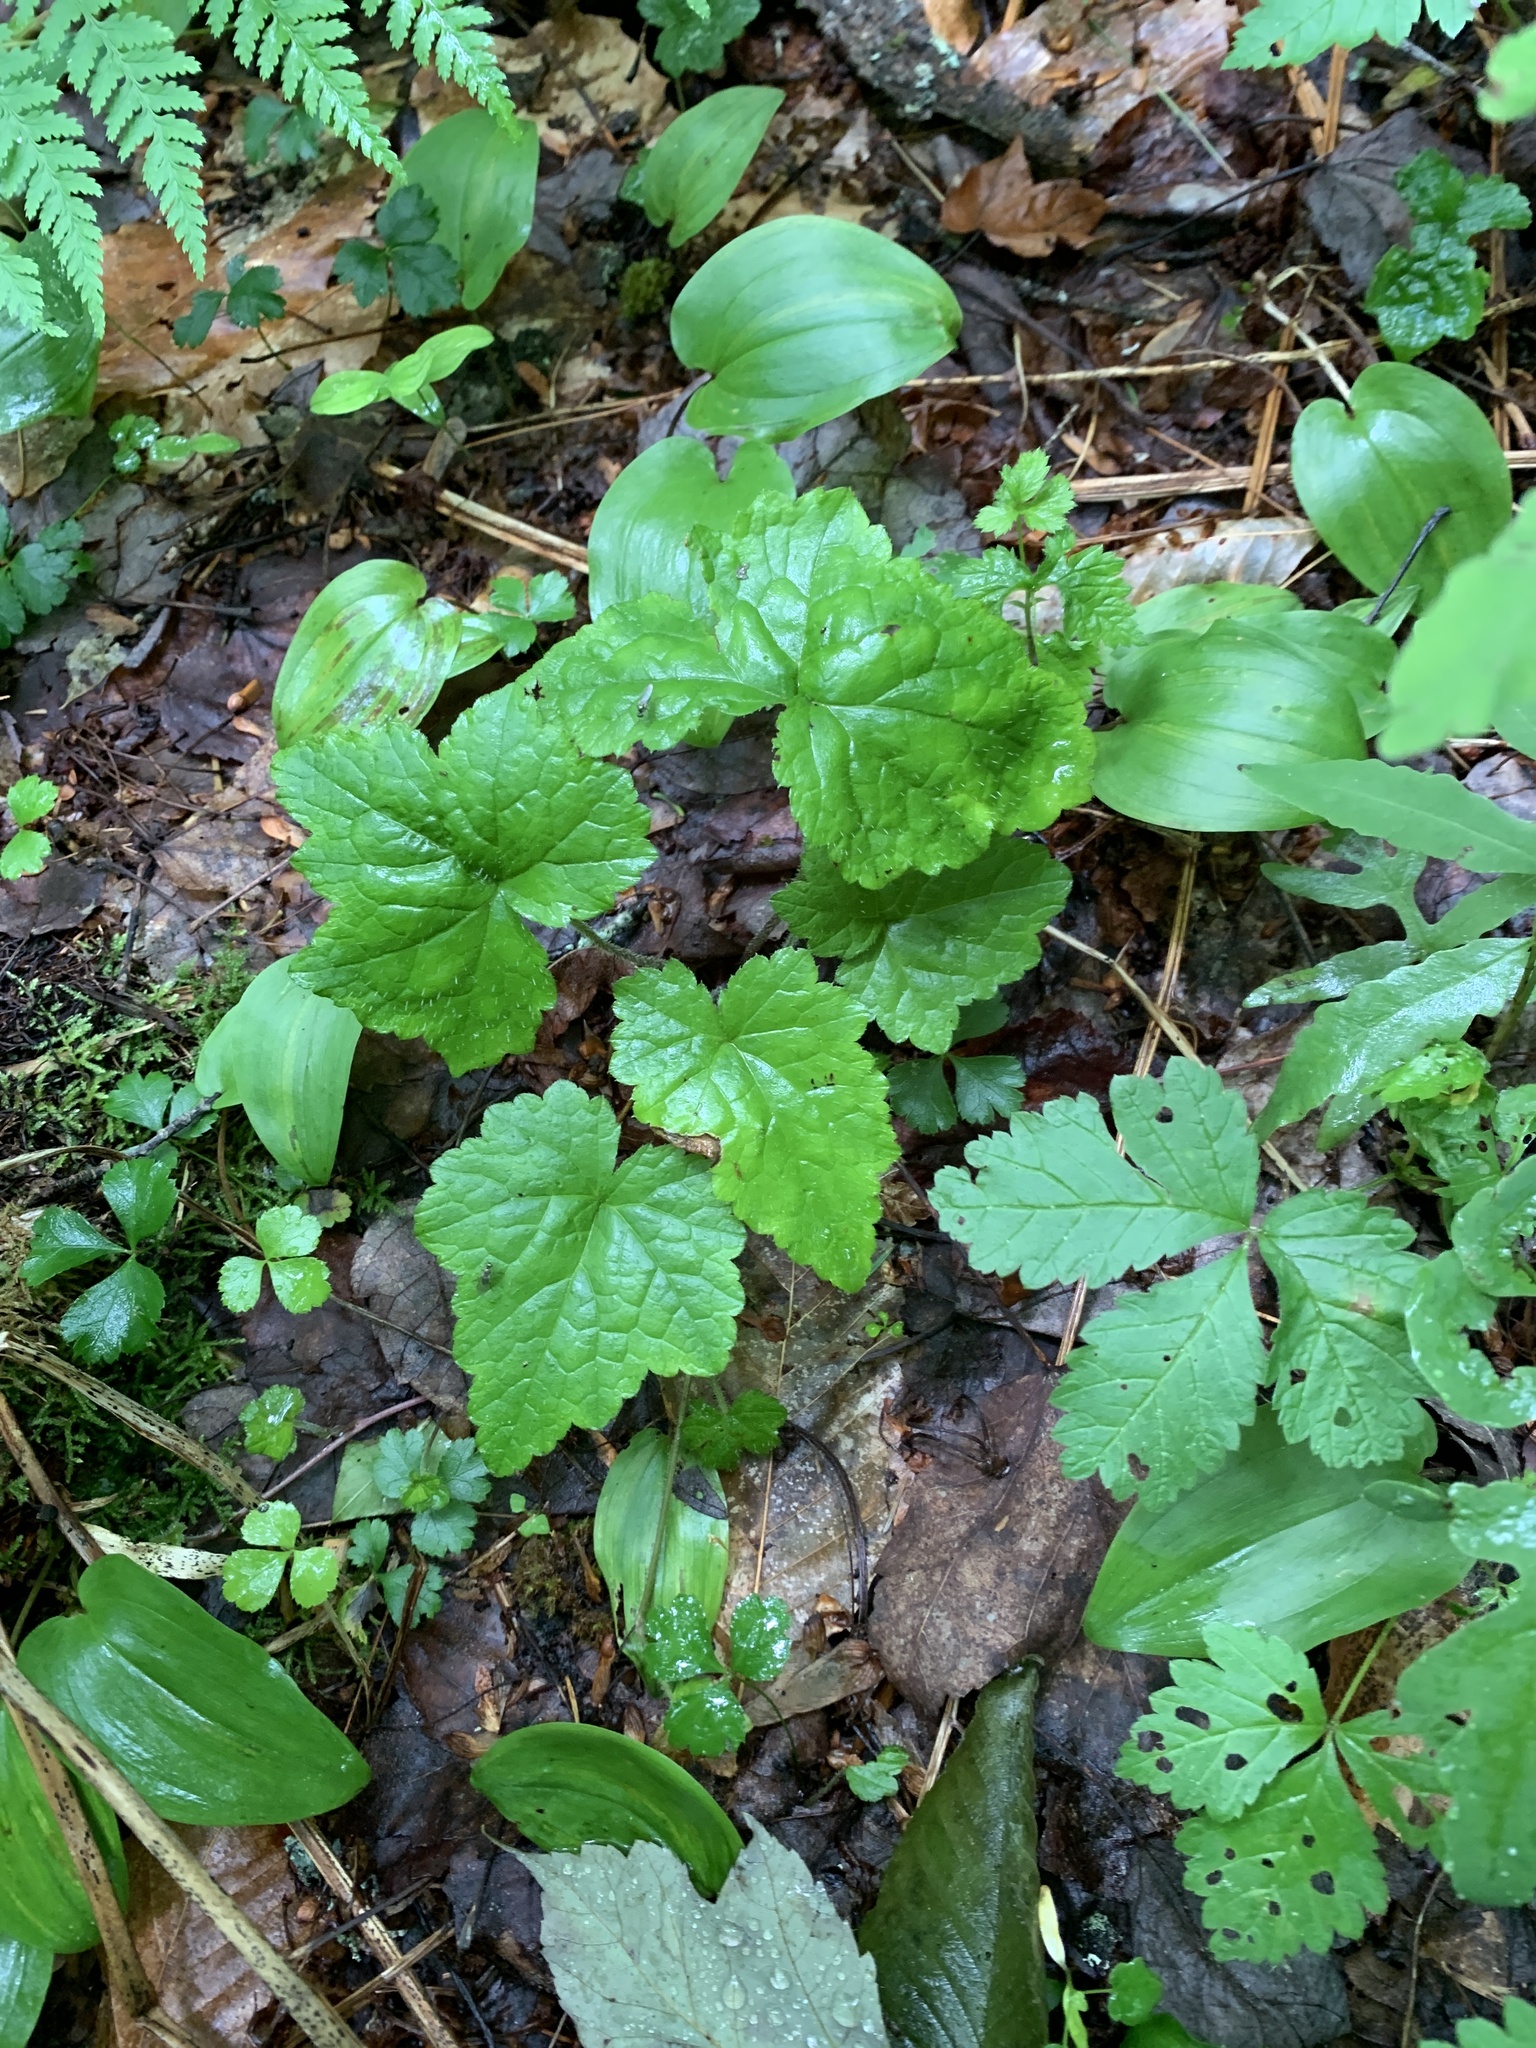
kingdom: Plantae
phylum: Tracheophyta
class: Magnoliopsida
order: Saxifragales
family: Saxifragaceae
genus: Tiarella
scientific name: Tiarella stolonifera
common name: Stoloniferous foamflower
